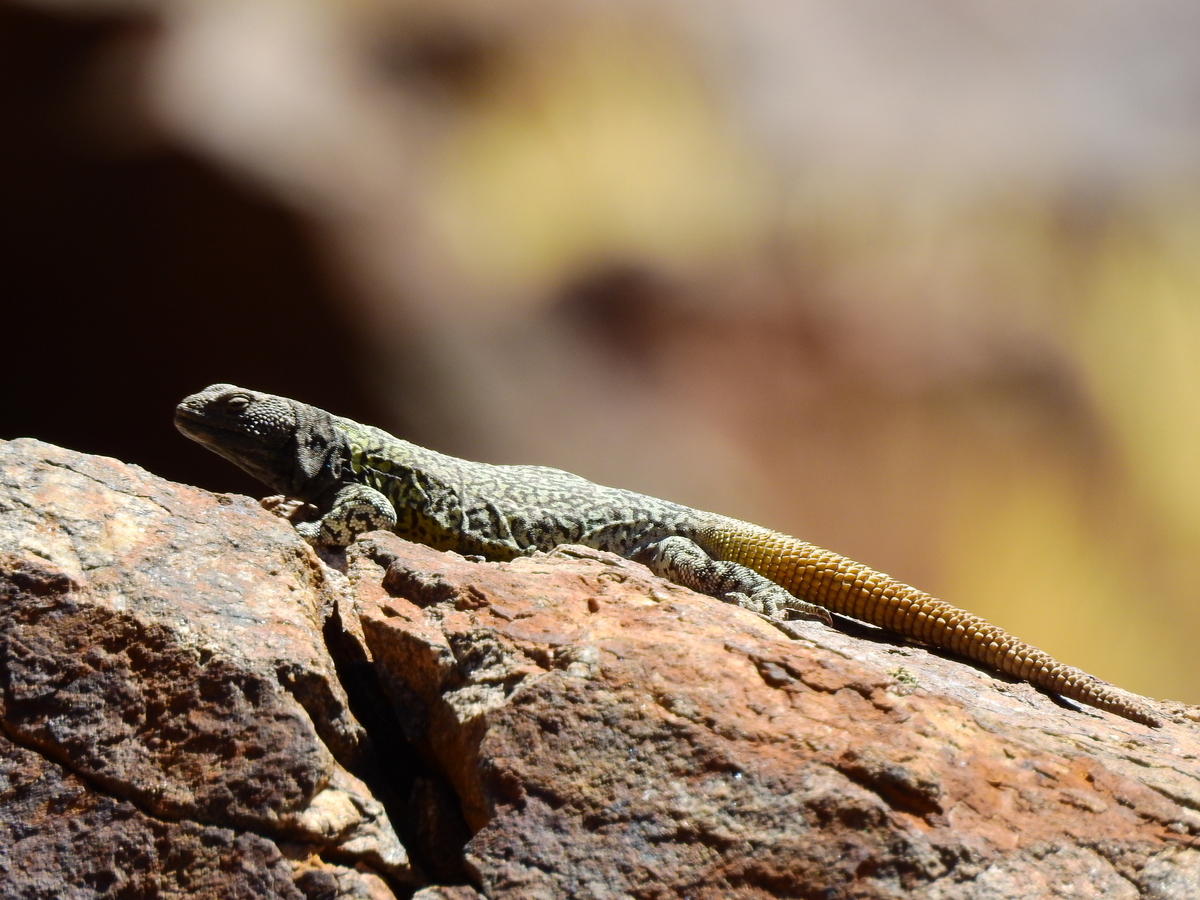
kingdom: Animalia
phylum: Chordata
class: Squamata
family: Liolaemidae
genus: Phymaturus
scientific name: Phymaturus palluma
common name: High mountain lizard
